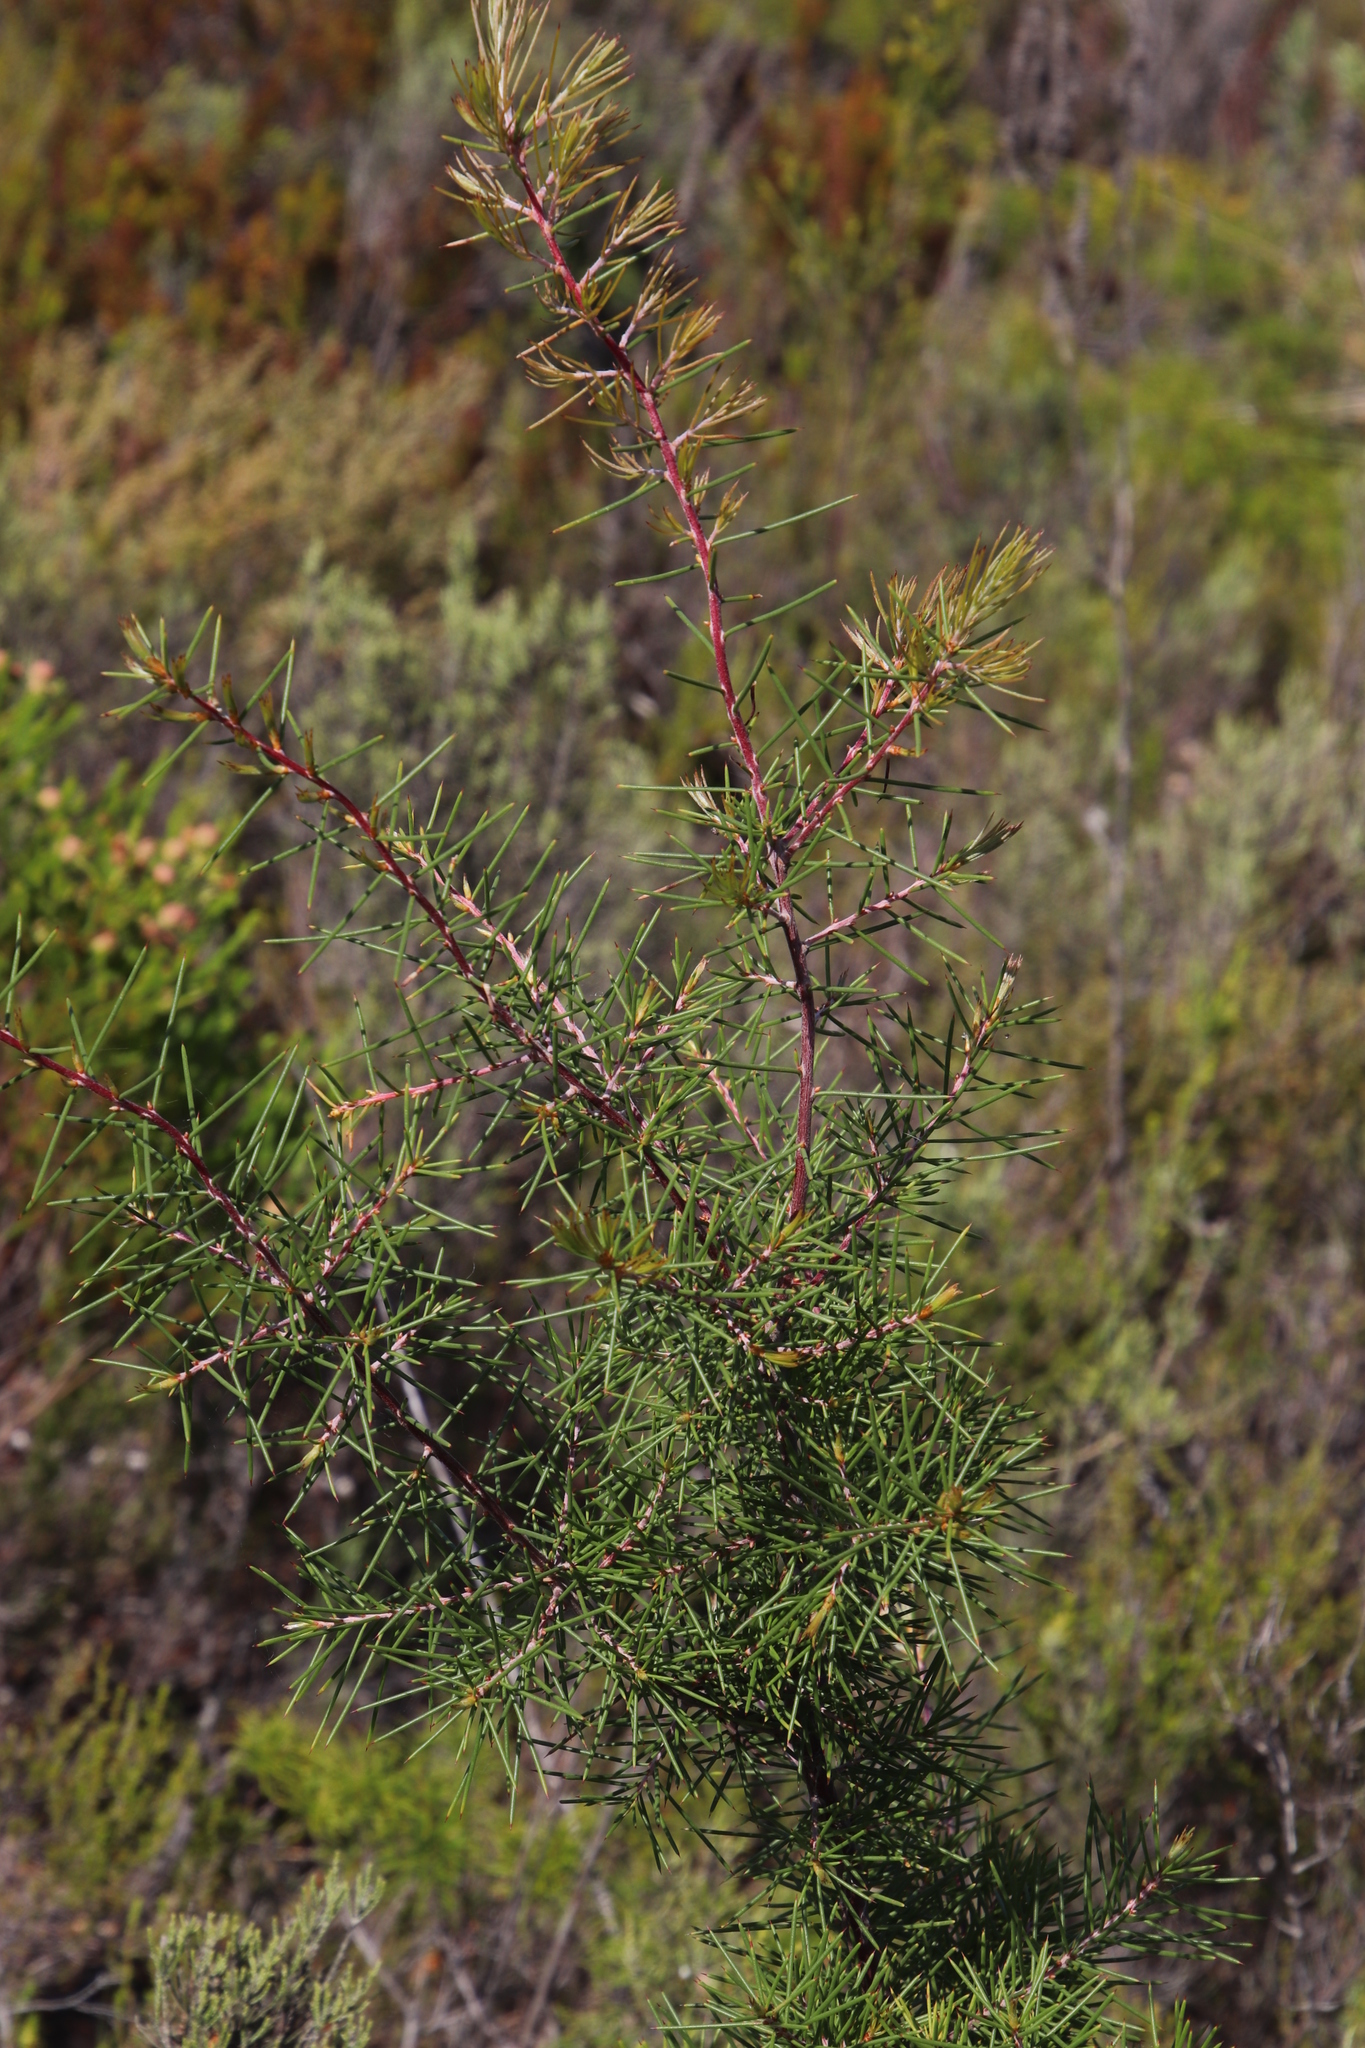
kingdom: Plantae
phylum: Tracheophyta
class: Magnoliopsida
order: Proteales
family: Proteaceae
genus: Hakea
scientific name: Hakea sericea
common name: Needle bush
